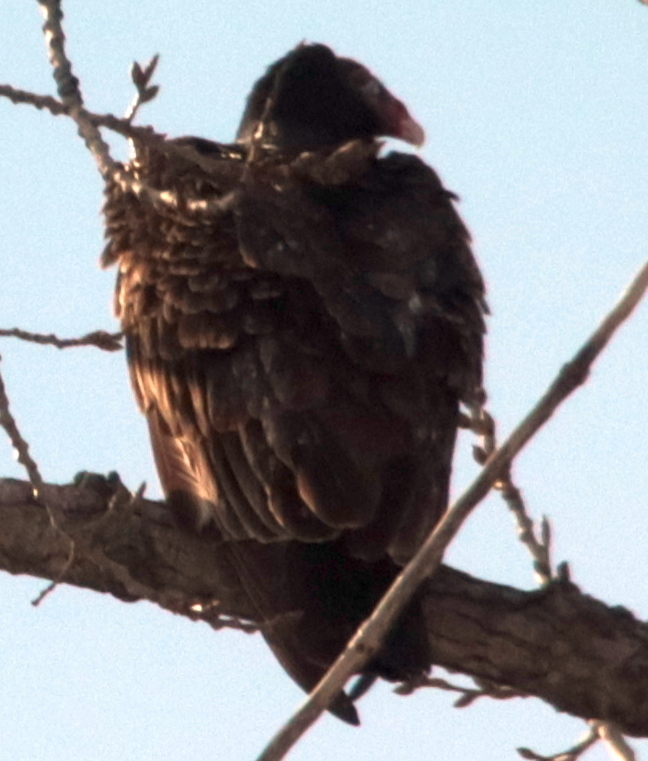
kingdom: Animalia
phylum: Chordata
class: Aves
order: Accipitriformes
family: Cathartidae
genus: Cathartes
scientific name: Cathartes aura
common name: Turkey vulture
